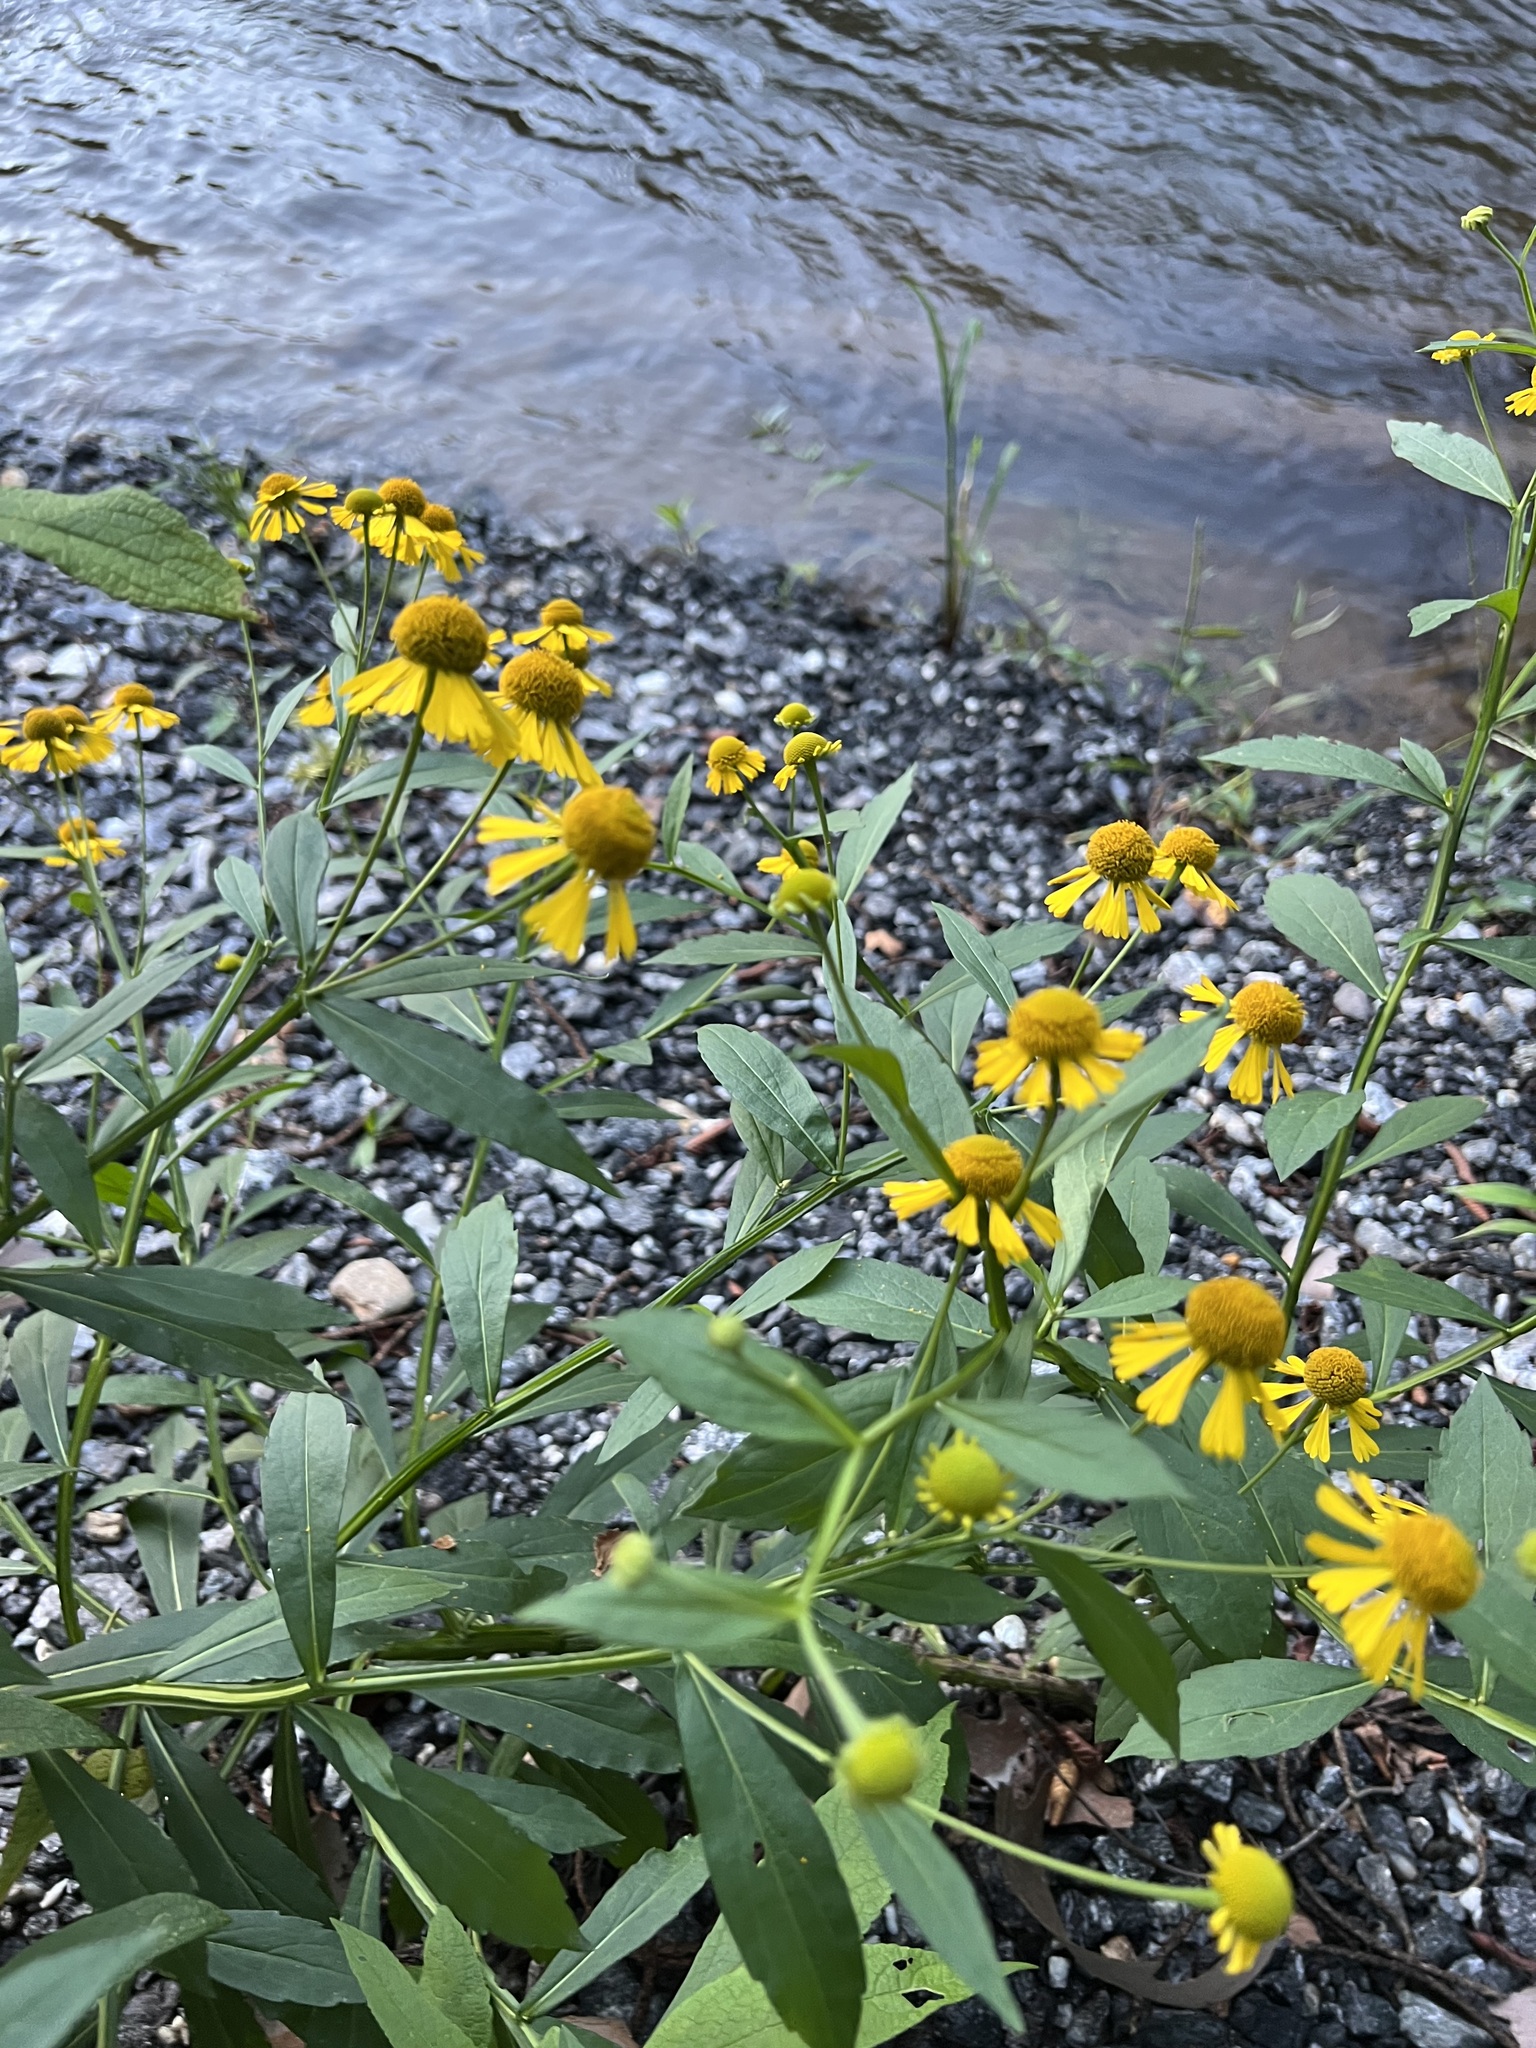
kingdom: Plantae
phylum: Tracheophyta
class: Magnoliopsida
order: Asterales
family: Asteraceae
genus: Helenium
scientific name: Helenium autumnale
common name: Sneezeweed
